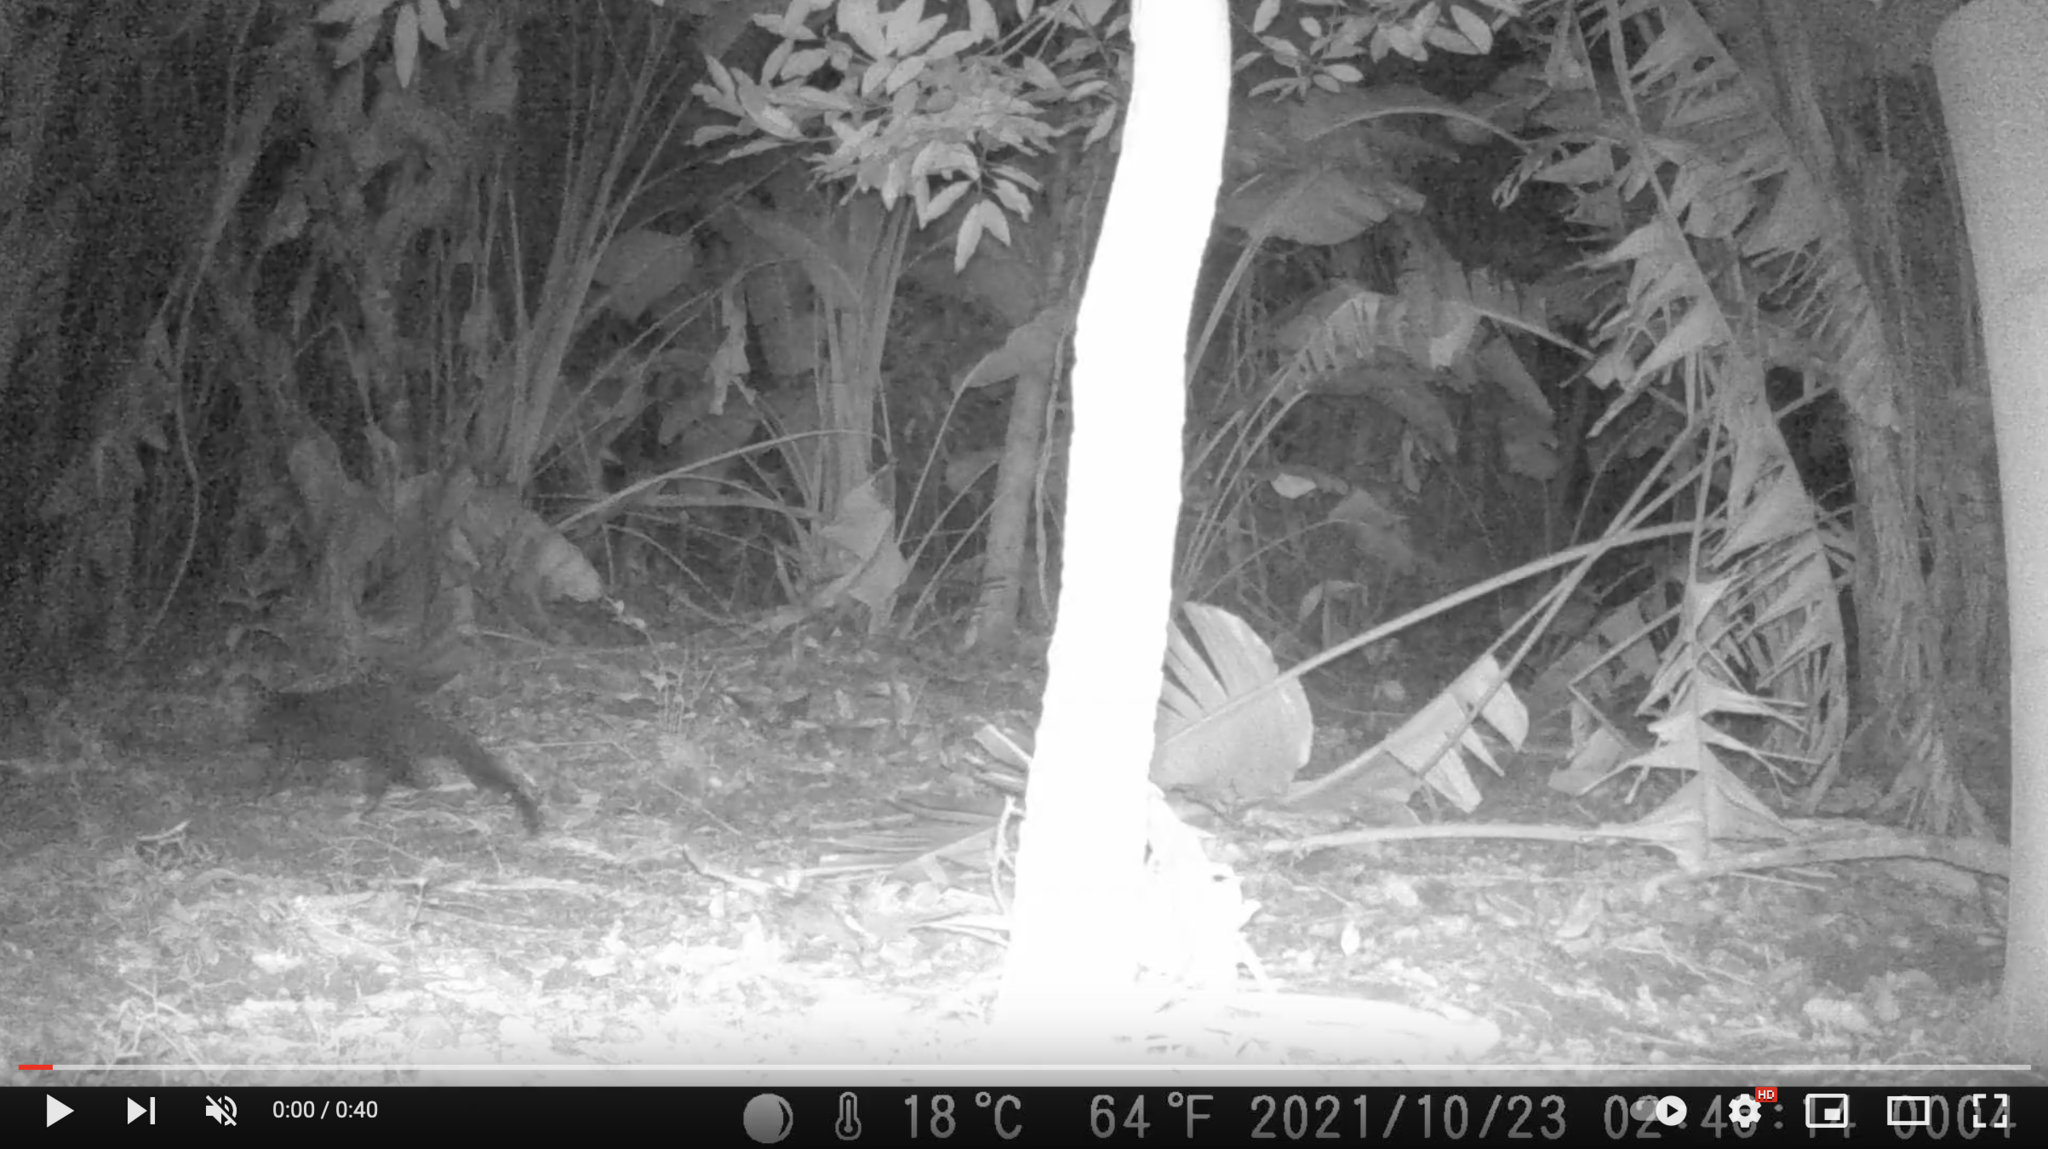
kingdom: Animalia
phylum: Chordata
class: Mammalia
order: Carnivora
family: Herpestidae
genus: Atilax
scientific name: Atilax paludinosus
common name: Marsh mongoose
